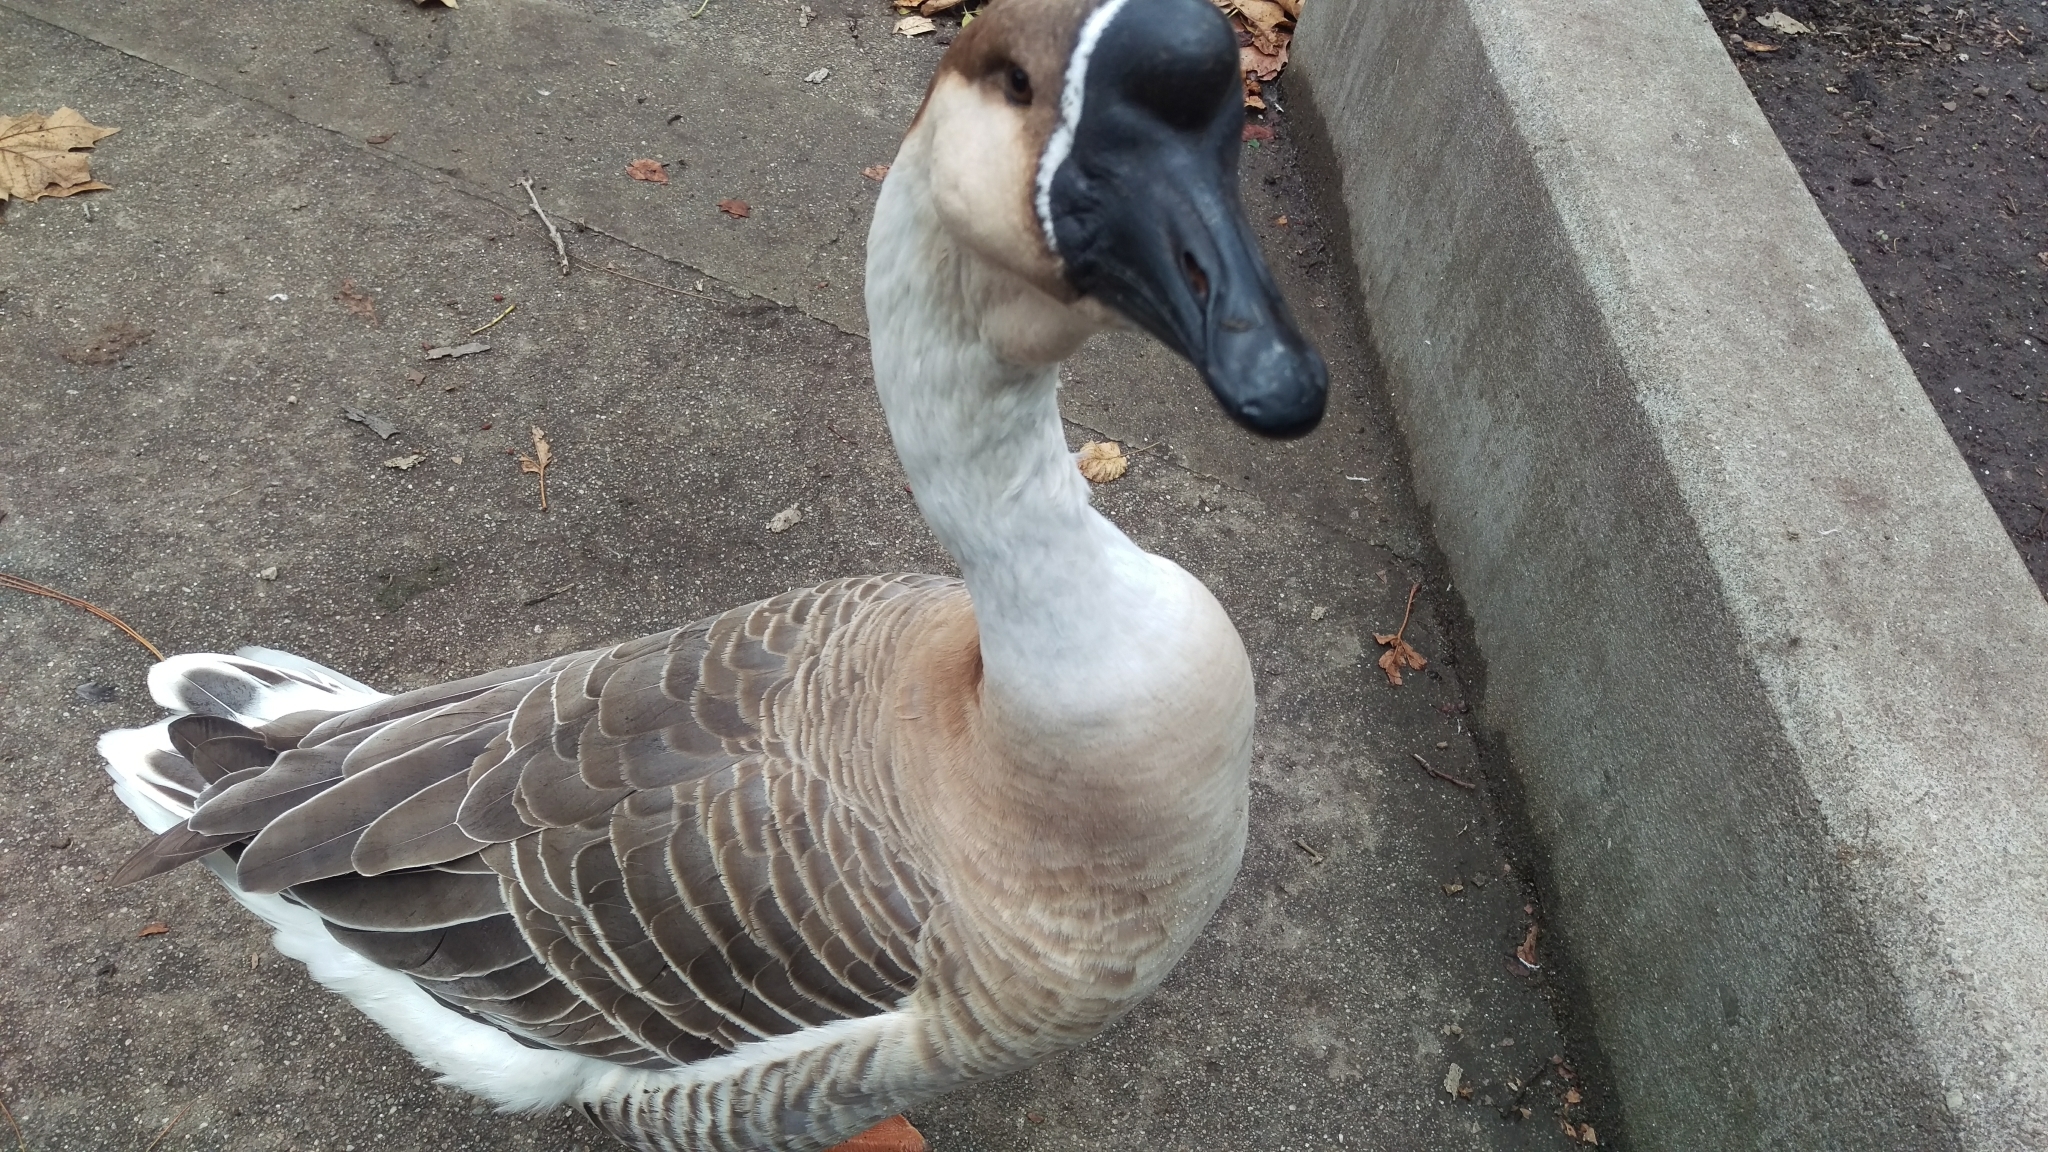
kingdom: Animalia
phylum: Chordata
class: Aves
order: Anseriformes
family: Anatidae
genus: Anser
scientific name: Anser cygnoides
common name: Swan goose
